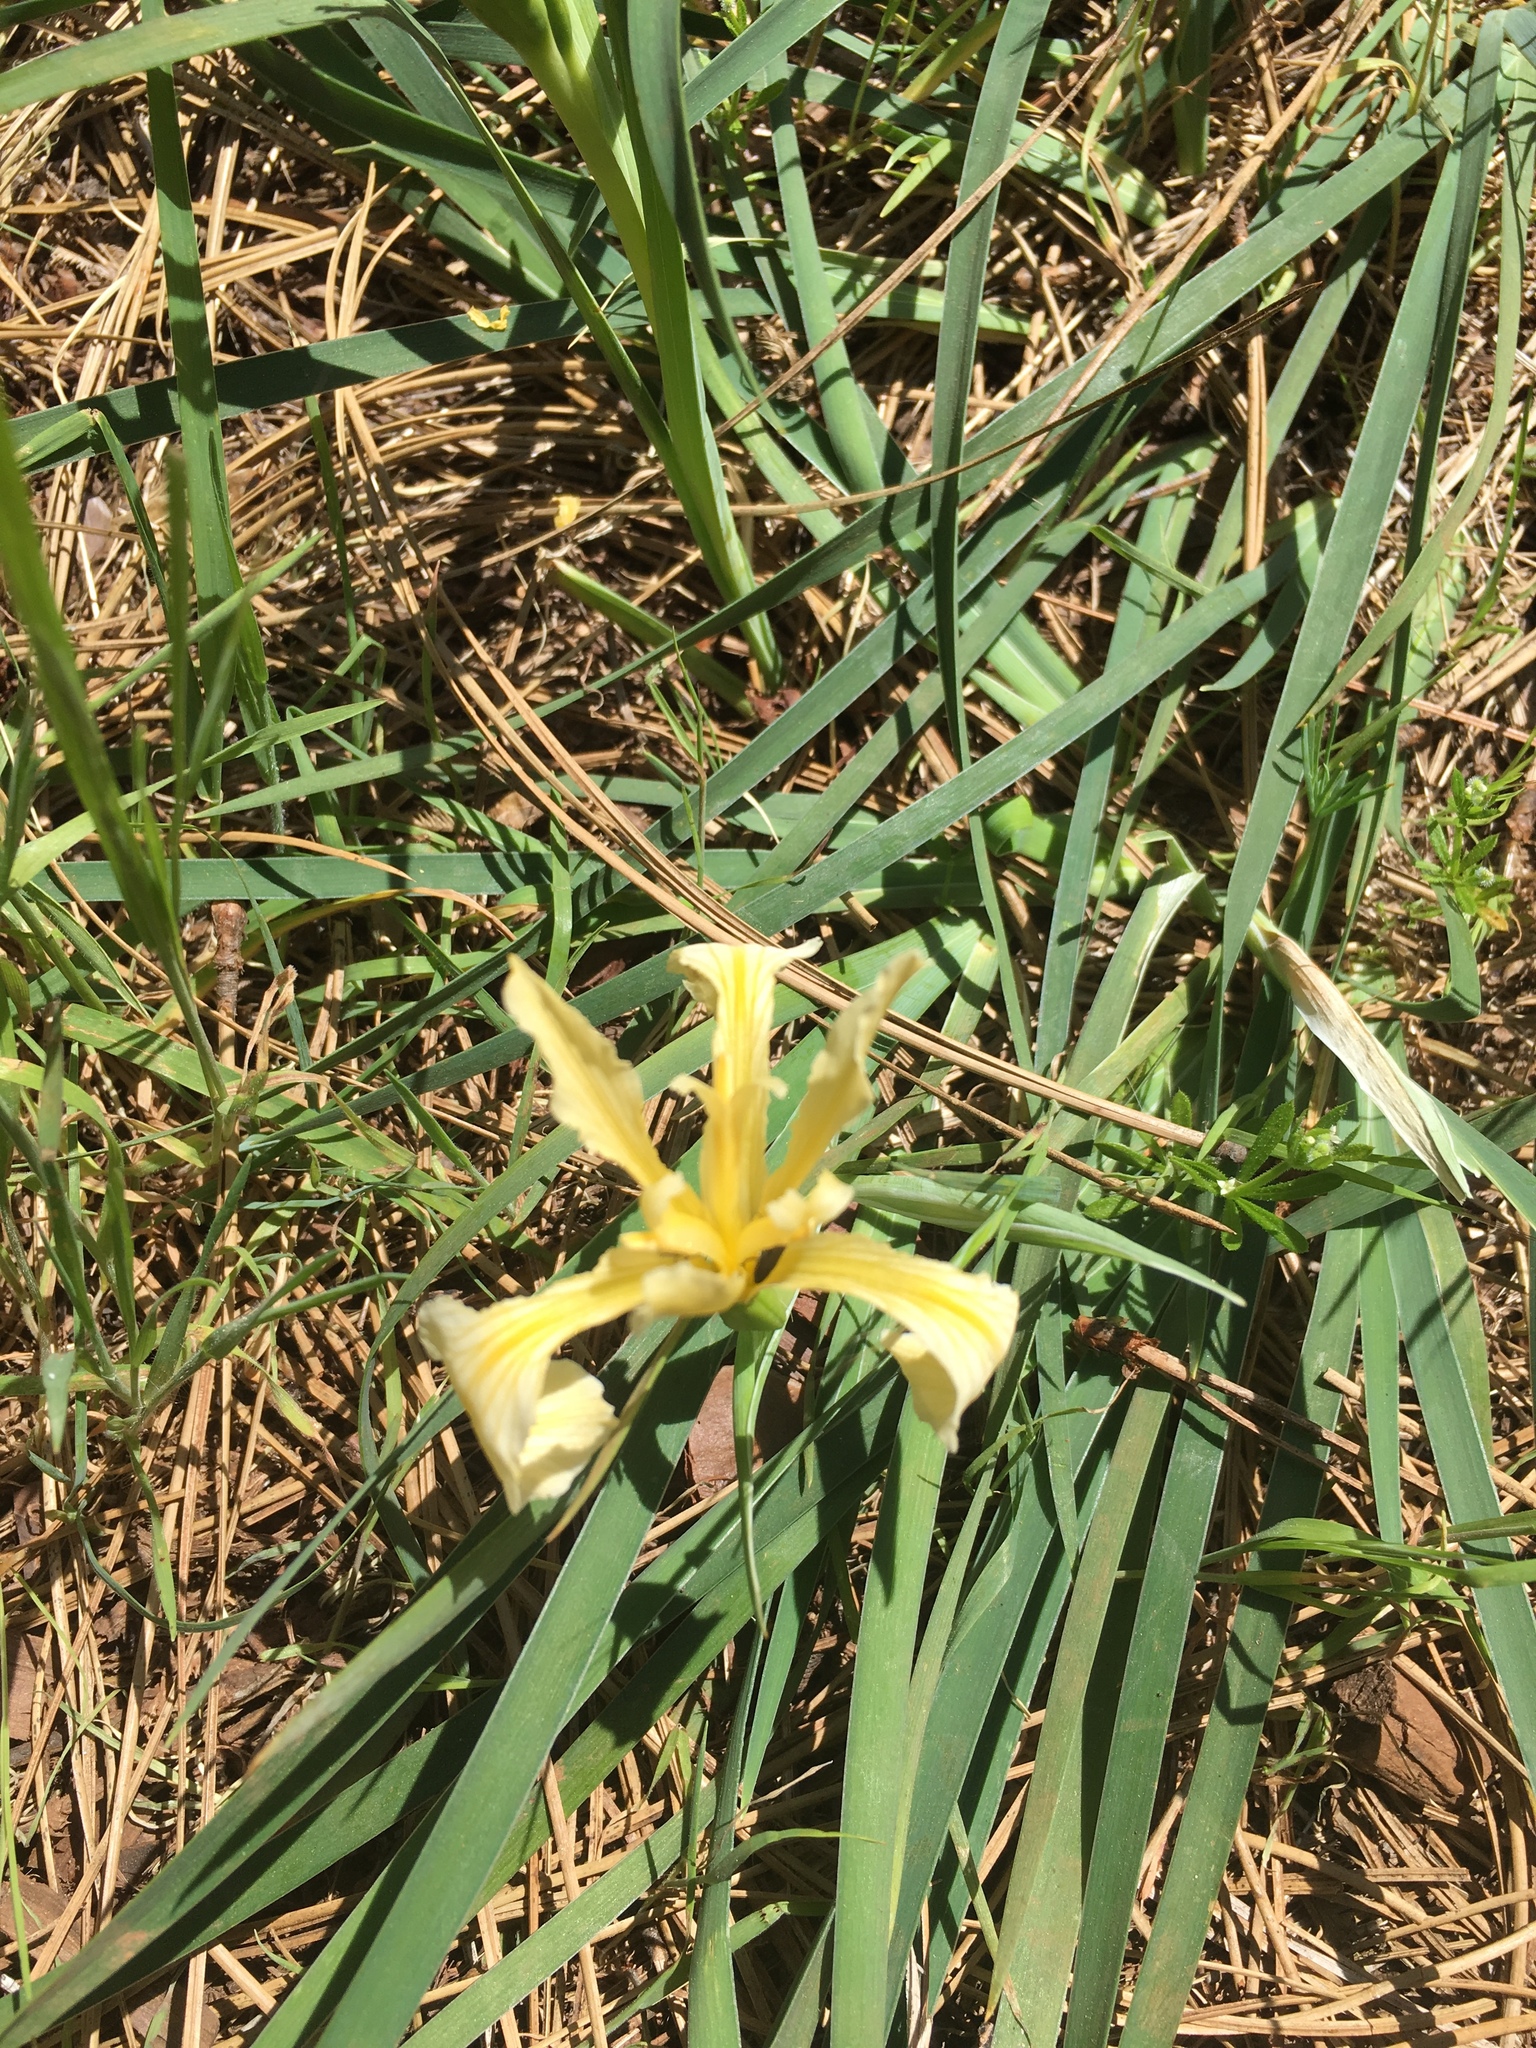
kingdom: Plantae
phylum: Tracheophyta
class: Liliopsida
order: Asparagales
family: Iridaceae
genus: Iris
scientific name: Iris hartwegii
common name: Sierra iris
